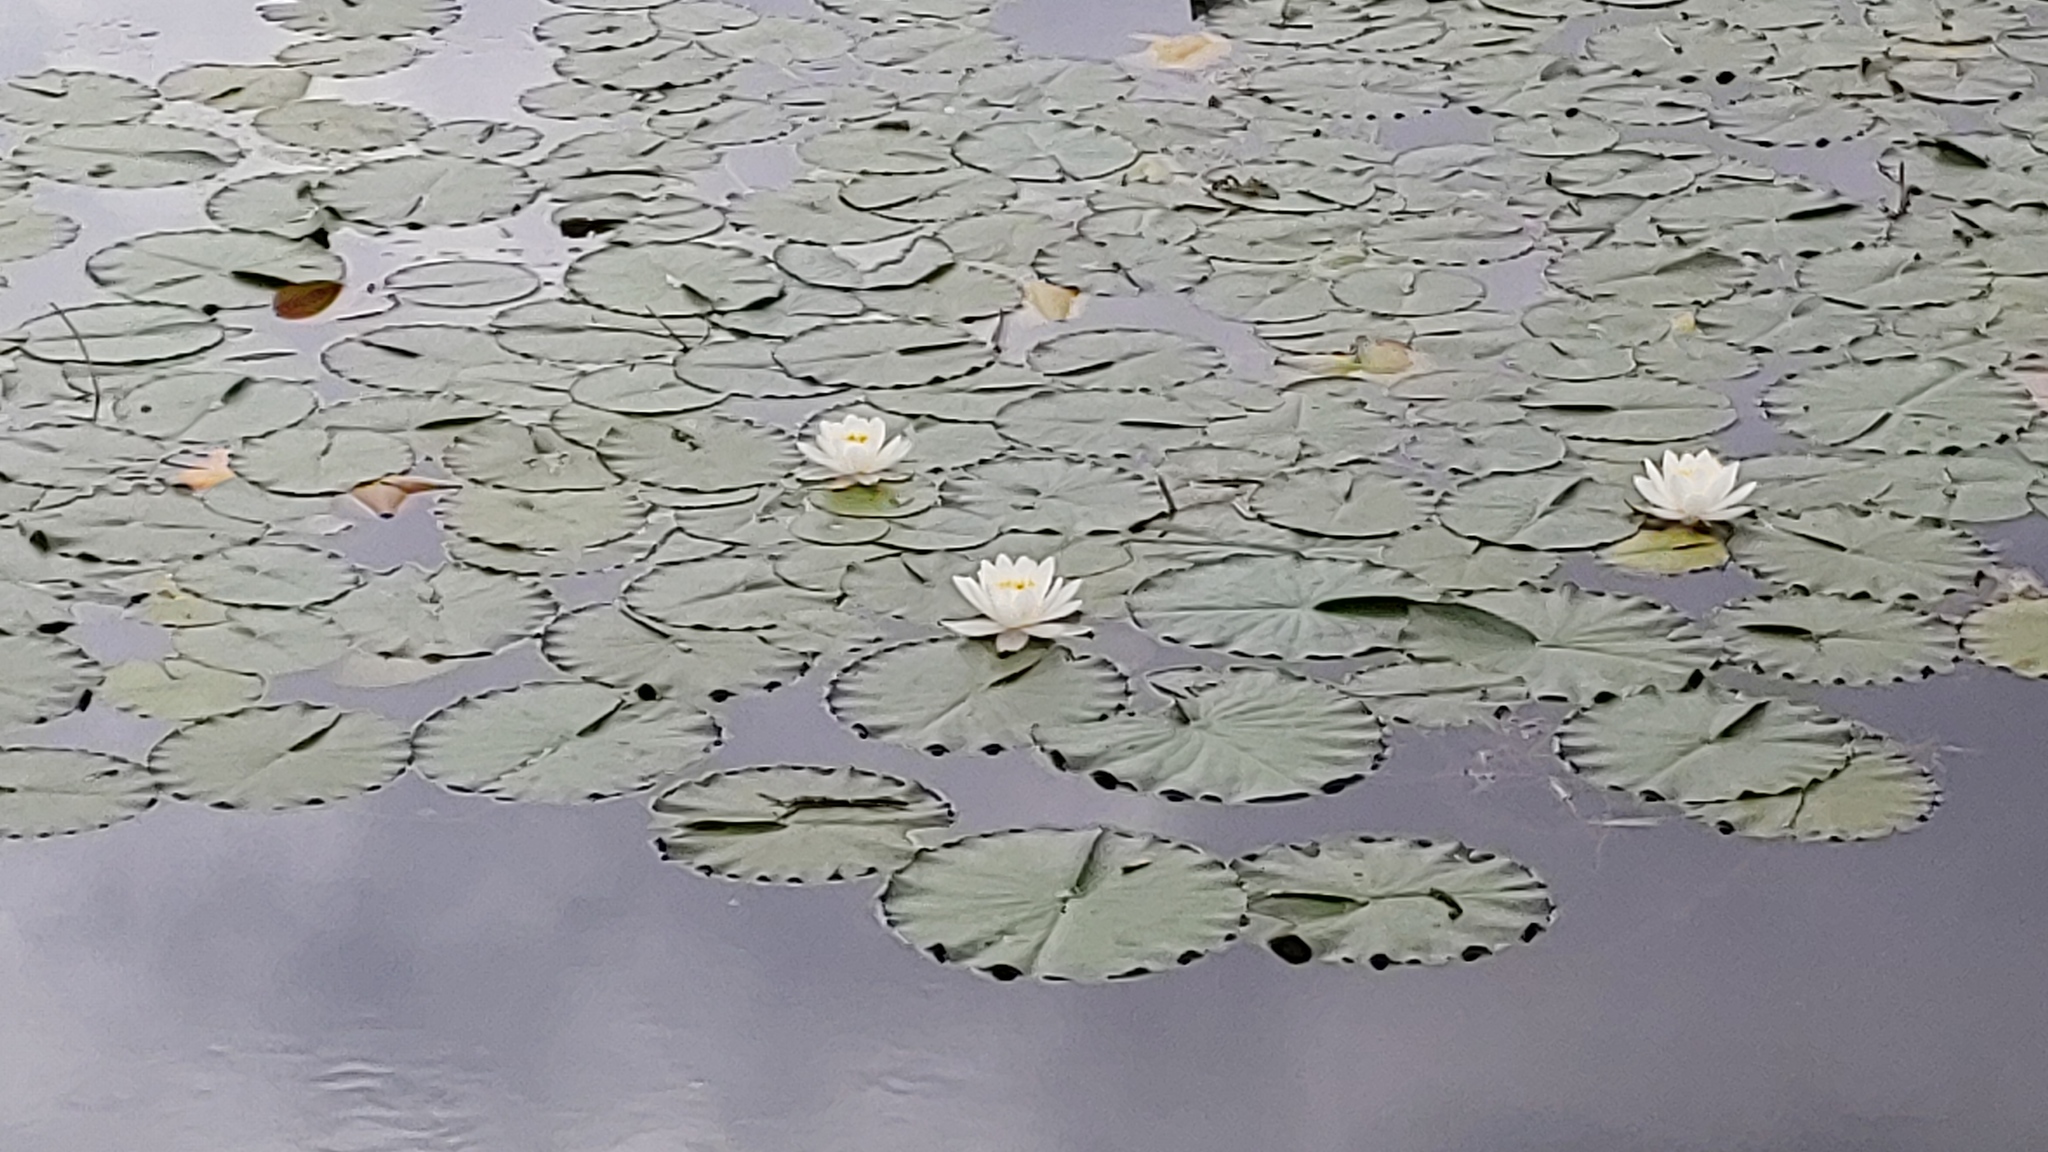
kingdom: Plantae
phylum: Tracheophyta
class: Magnoliopsida
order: Nymphaeales
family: Nymphaeaceae
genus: Nymphaea
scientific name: Nymphaea odorata
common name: Fragrant water-lily
